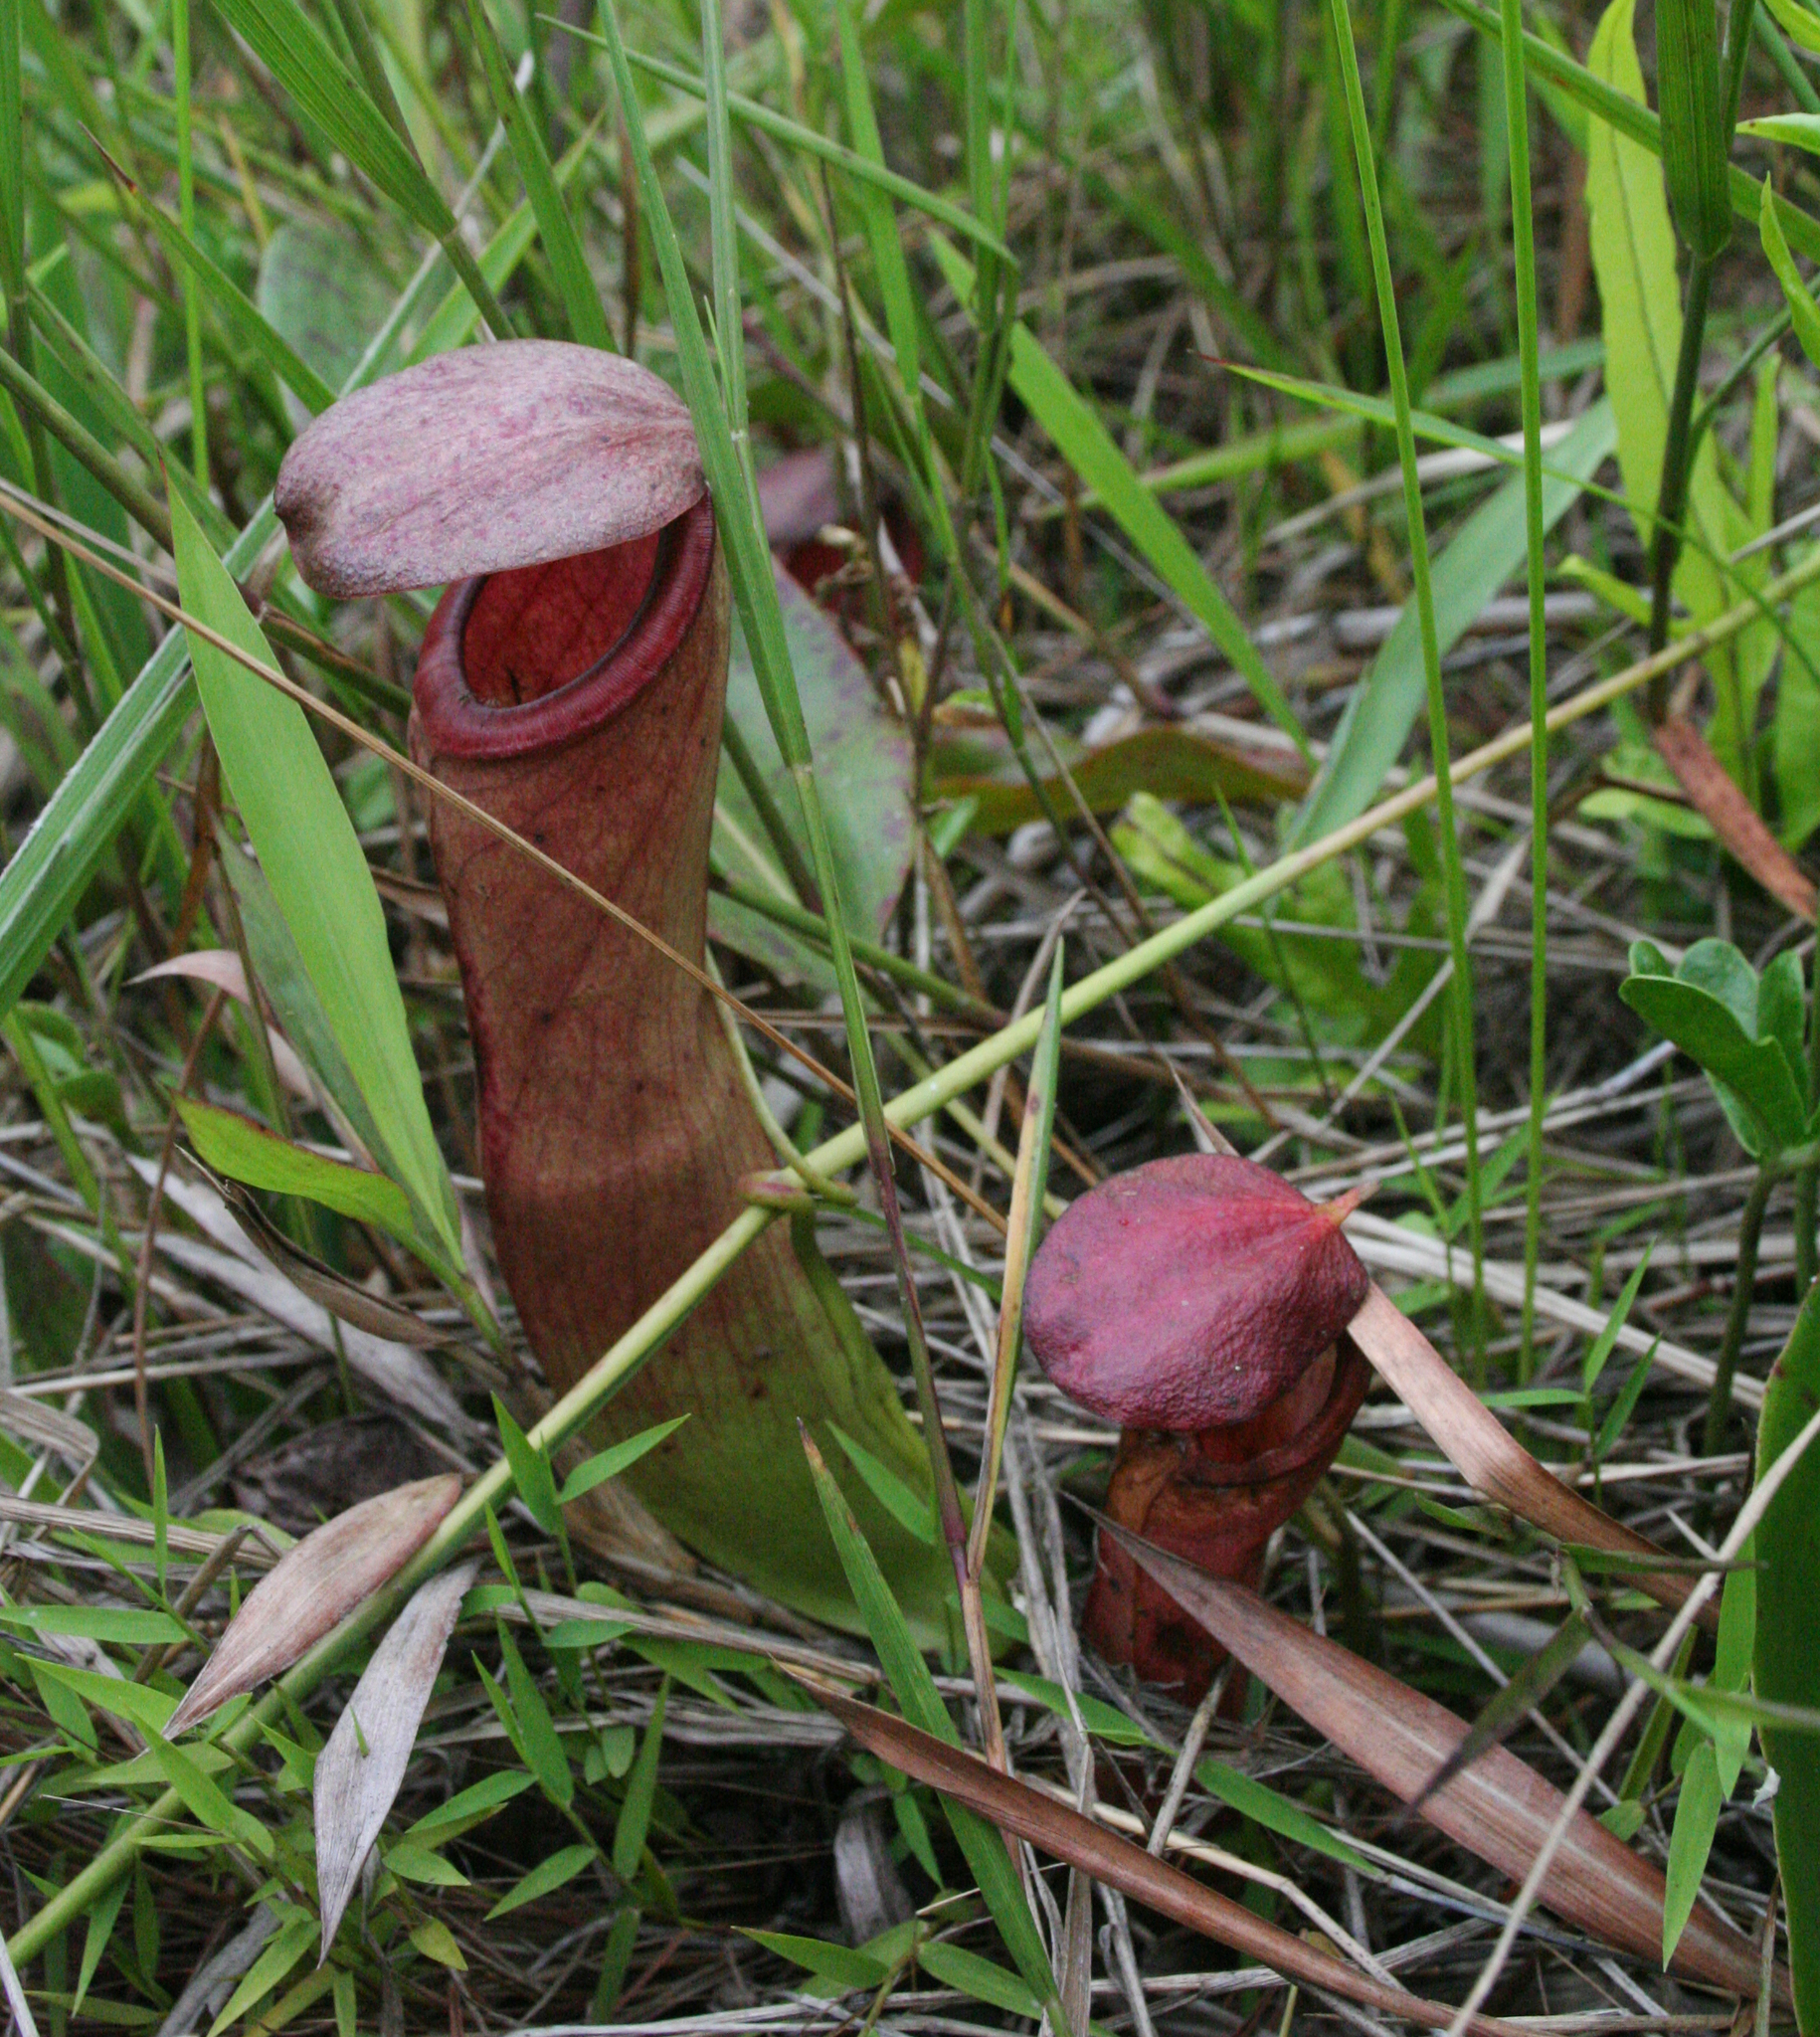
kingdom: Plantae
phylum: Tracheophyta
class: Magnoliopsida
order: Caryophyllales
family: Nepenthaceae
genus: Nepenthes
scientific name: Nepenthes mirabilis
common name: Tropical pitcherplant
